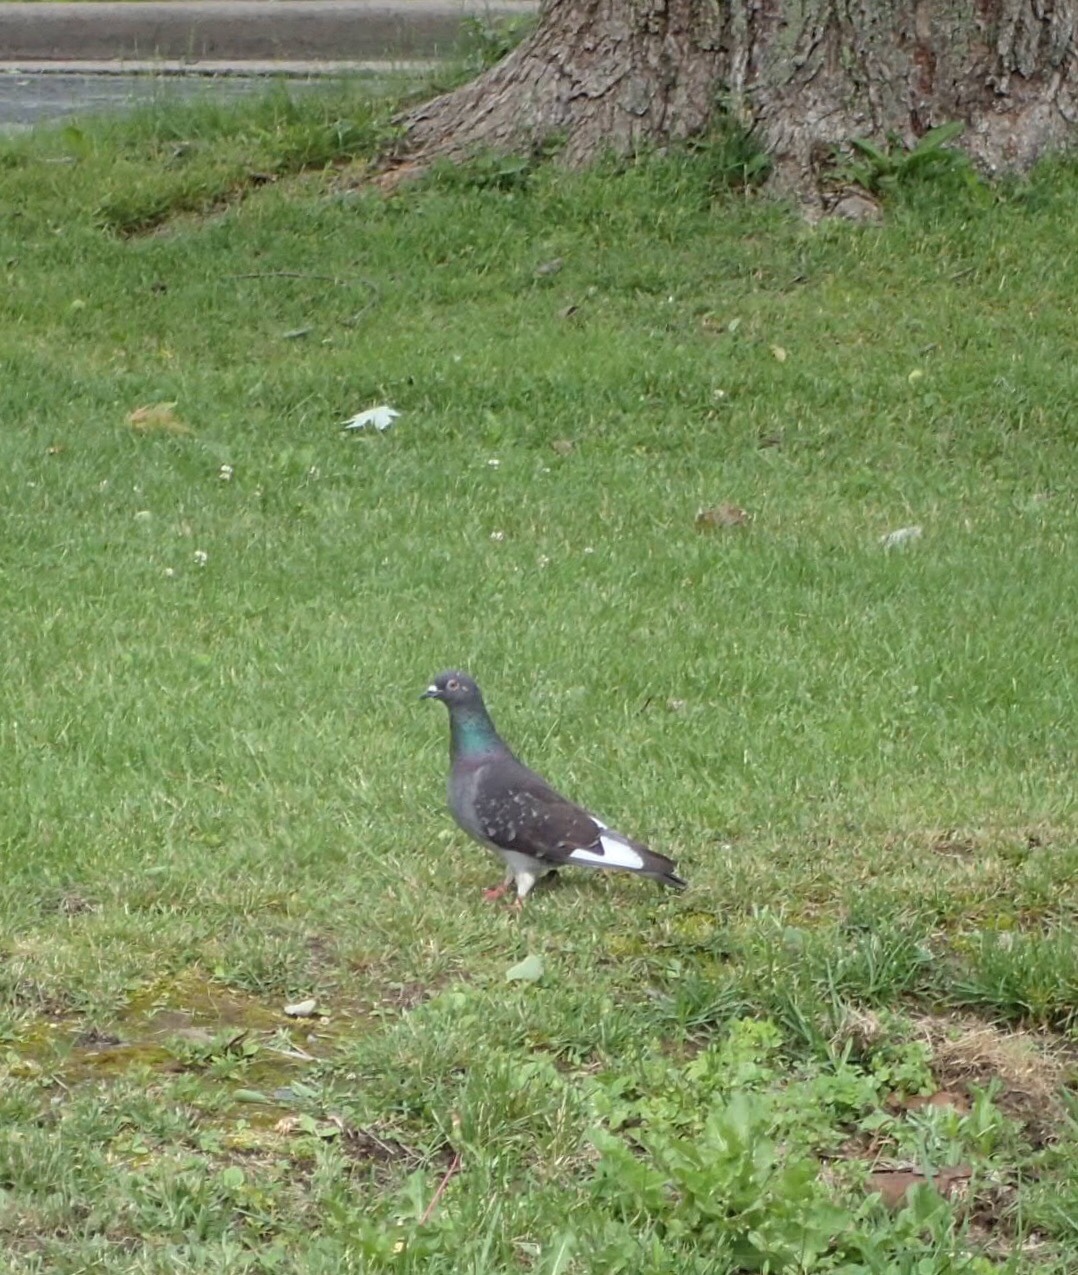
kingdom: Animalia
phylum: Chordata
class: Aves
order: Columbiformes
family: Columbidae
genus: Columba
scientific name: Columba livia
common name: Rock pigeon
